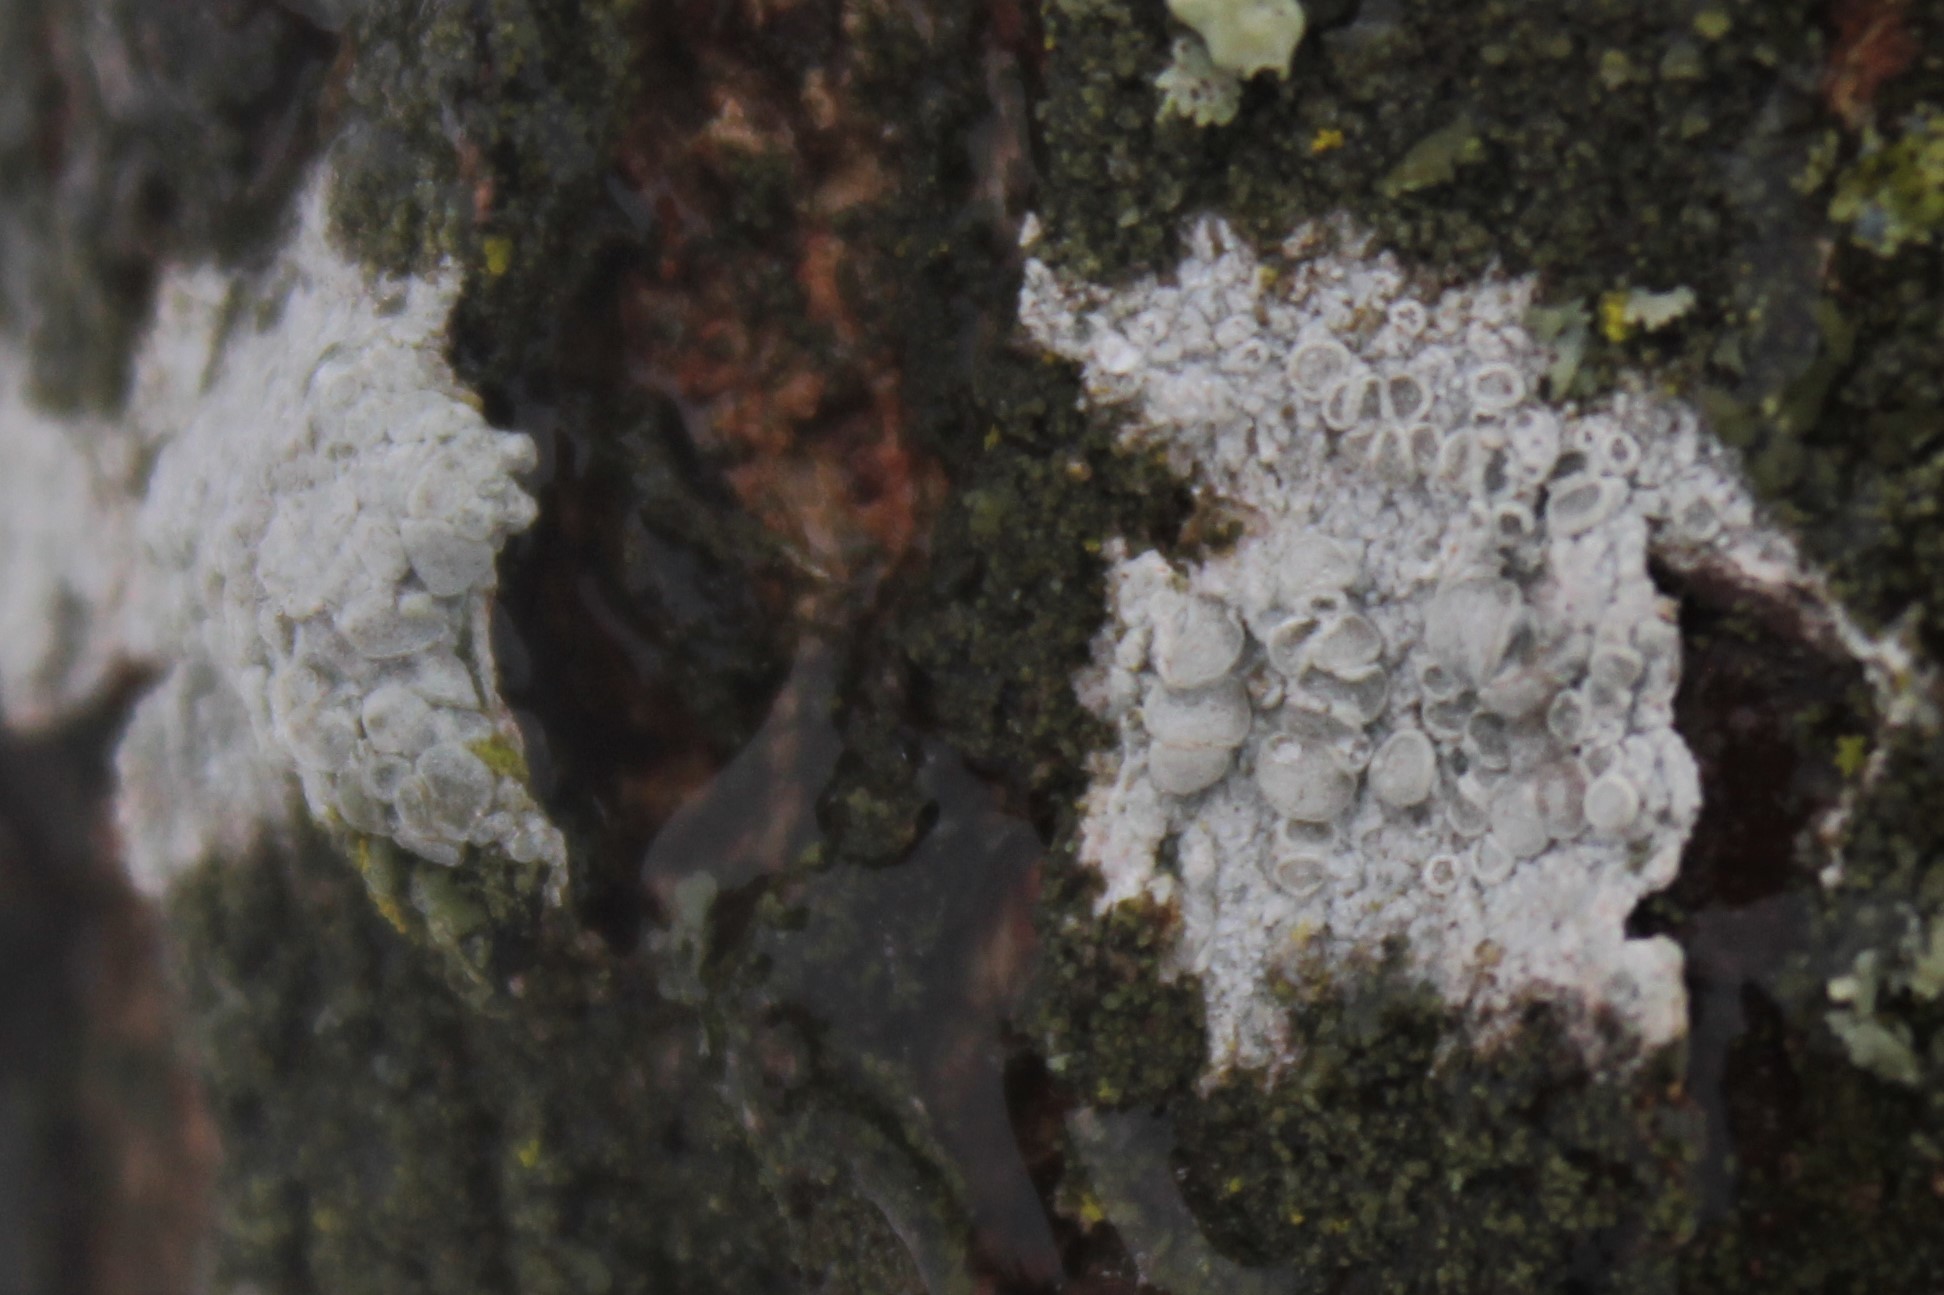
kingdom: Fungi
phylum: Ascomycota
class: Lecanoromycetes
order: Lecanorales
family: Lecanoraceae
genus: Lecanora
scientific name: Lecanora caesiorubella
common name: Frosted rim-lichen
